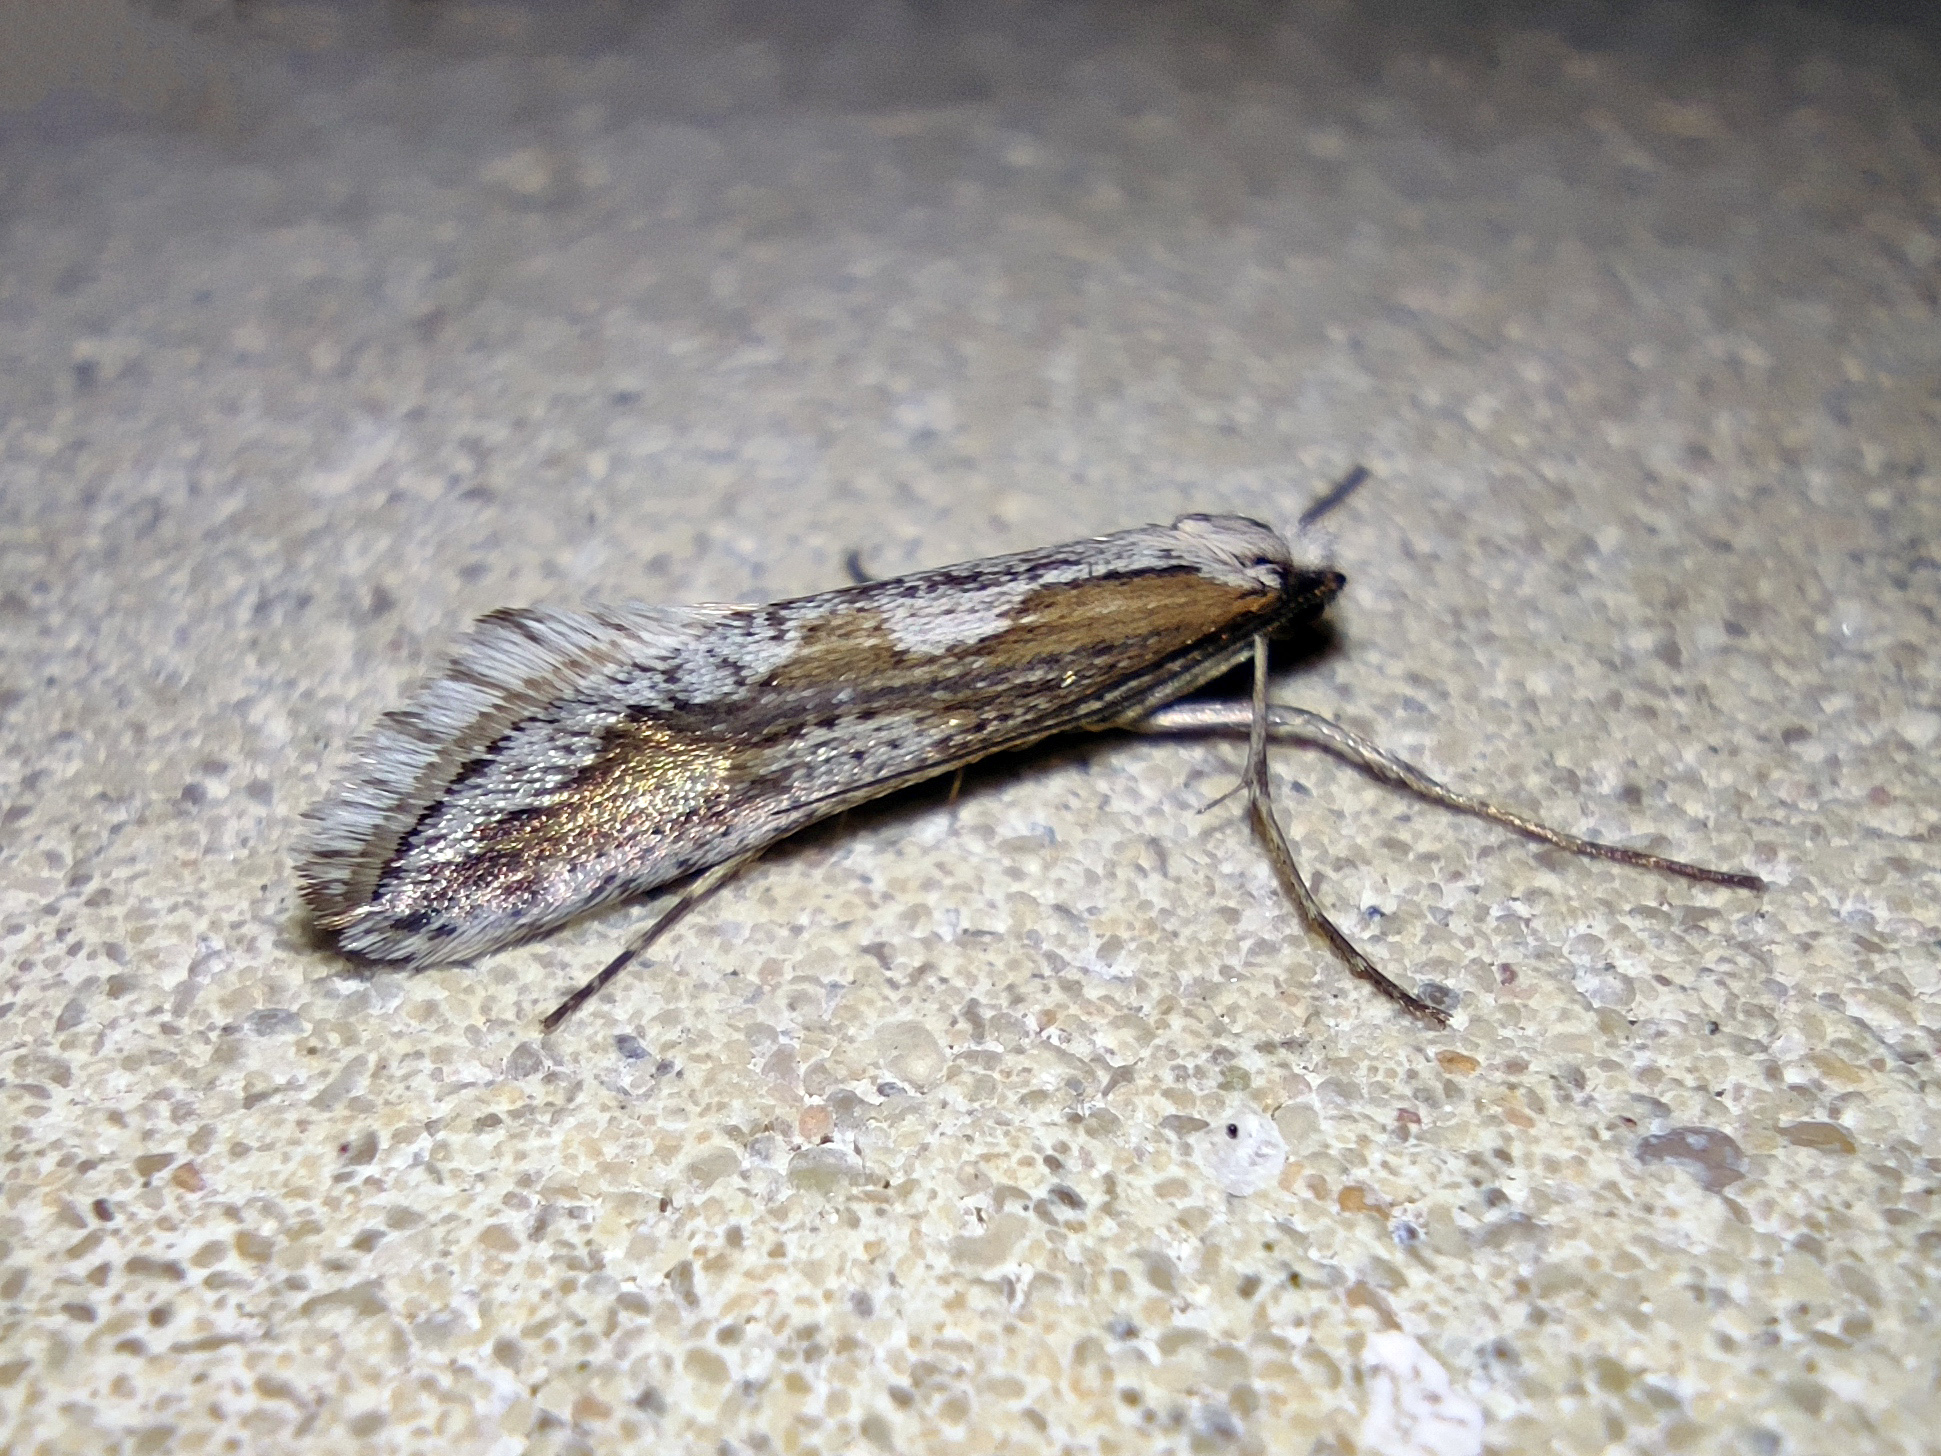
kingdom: Animalia
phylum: Arthropoda
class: Insecta
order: Lepidoptera
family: Eriocottidae
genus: Deuterotinea
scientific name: Deuterotinea casanella
